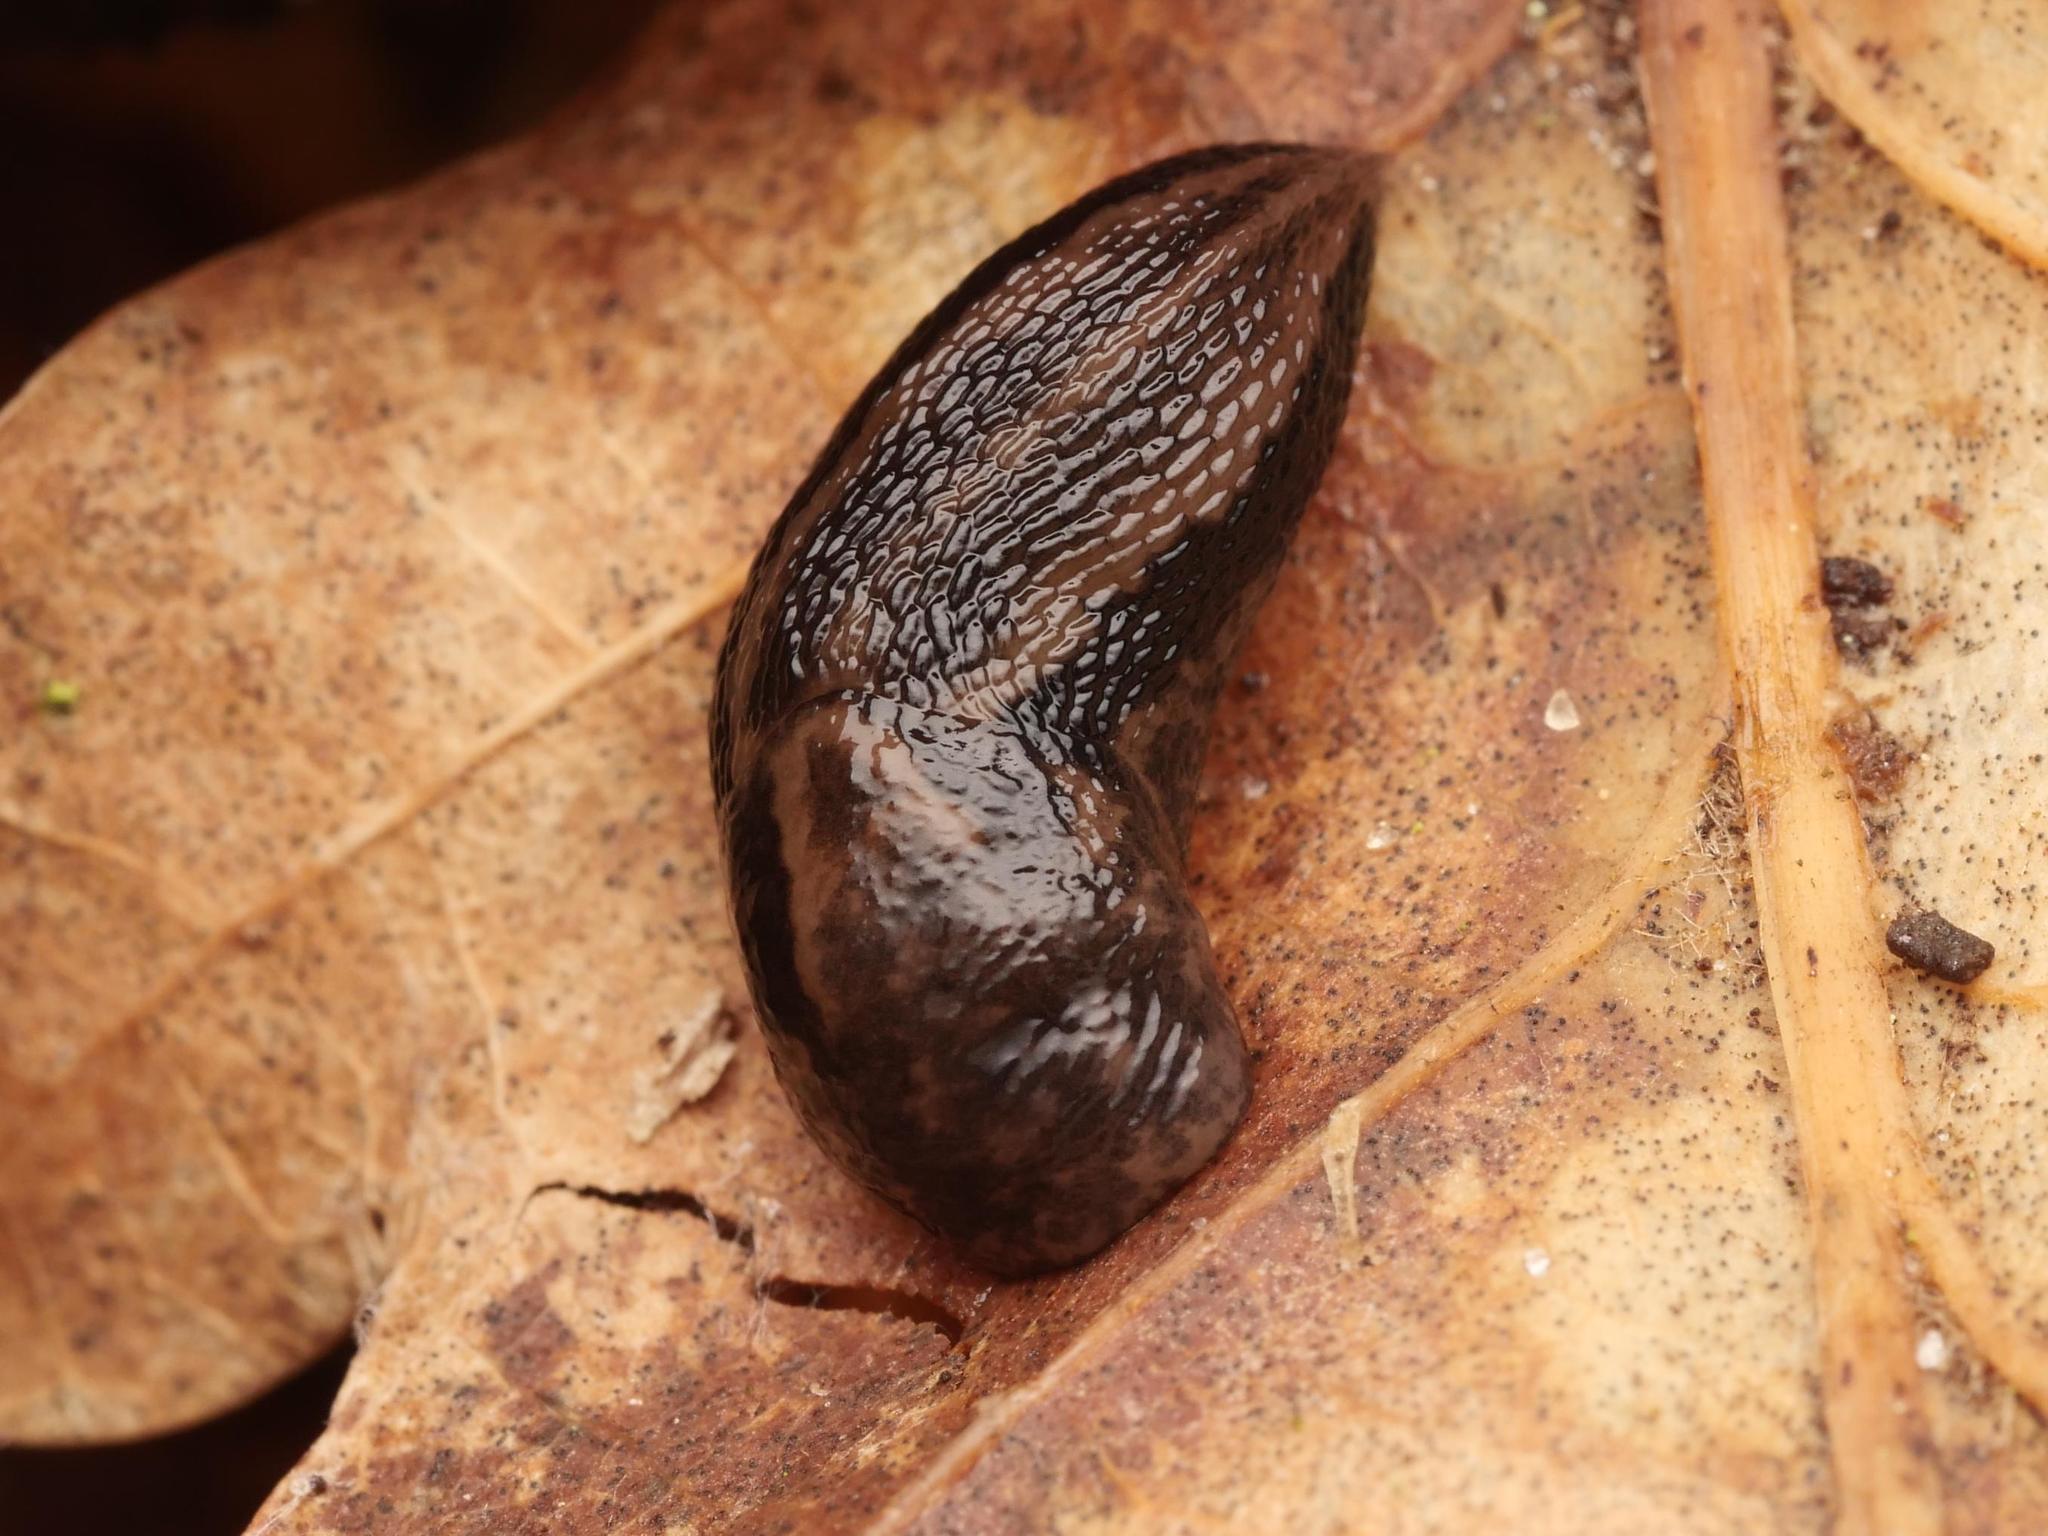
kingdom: Animalia
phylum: Mollusca
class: Gastropoda
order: Stylommatophora
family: Limacidae
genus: Limax
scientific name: Limax maximus
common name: Great grey slug
